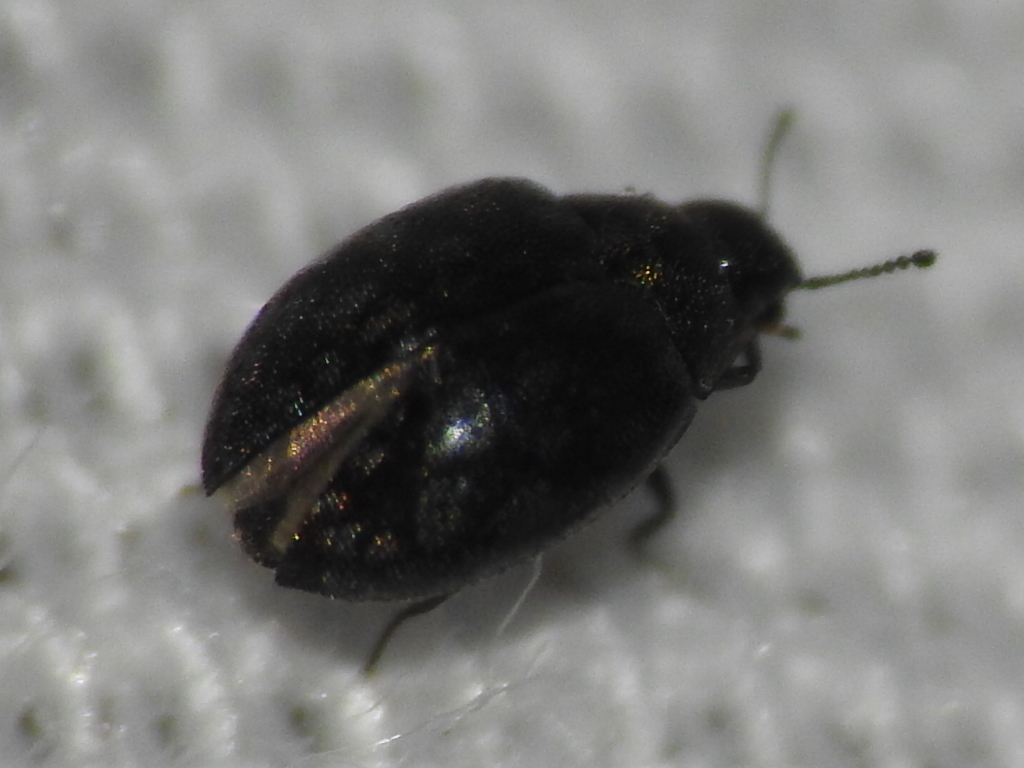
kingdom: Animalia
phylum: Arthropoda
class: Insecta
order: Coleoptera
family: Limnichidae
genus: Eulimnichus
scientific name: Eulimnichus ater
